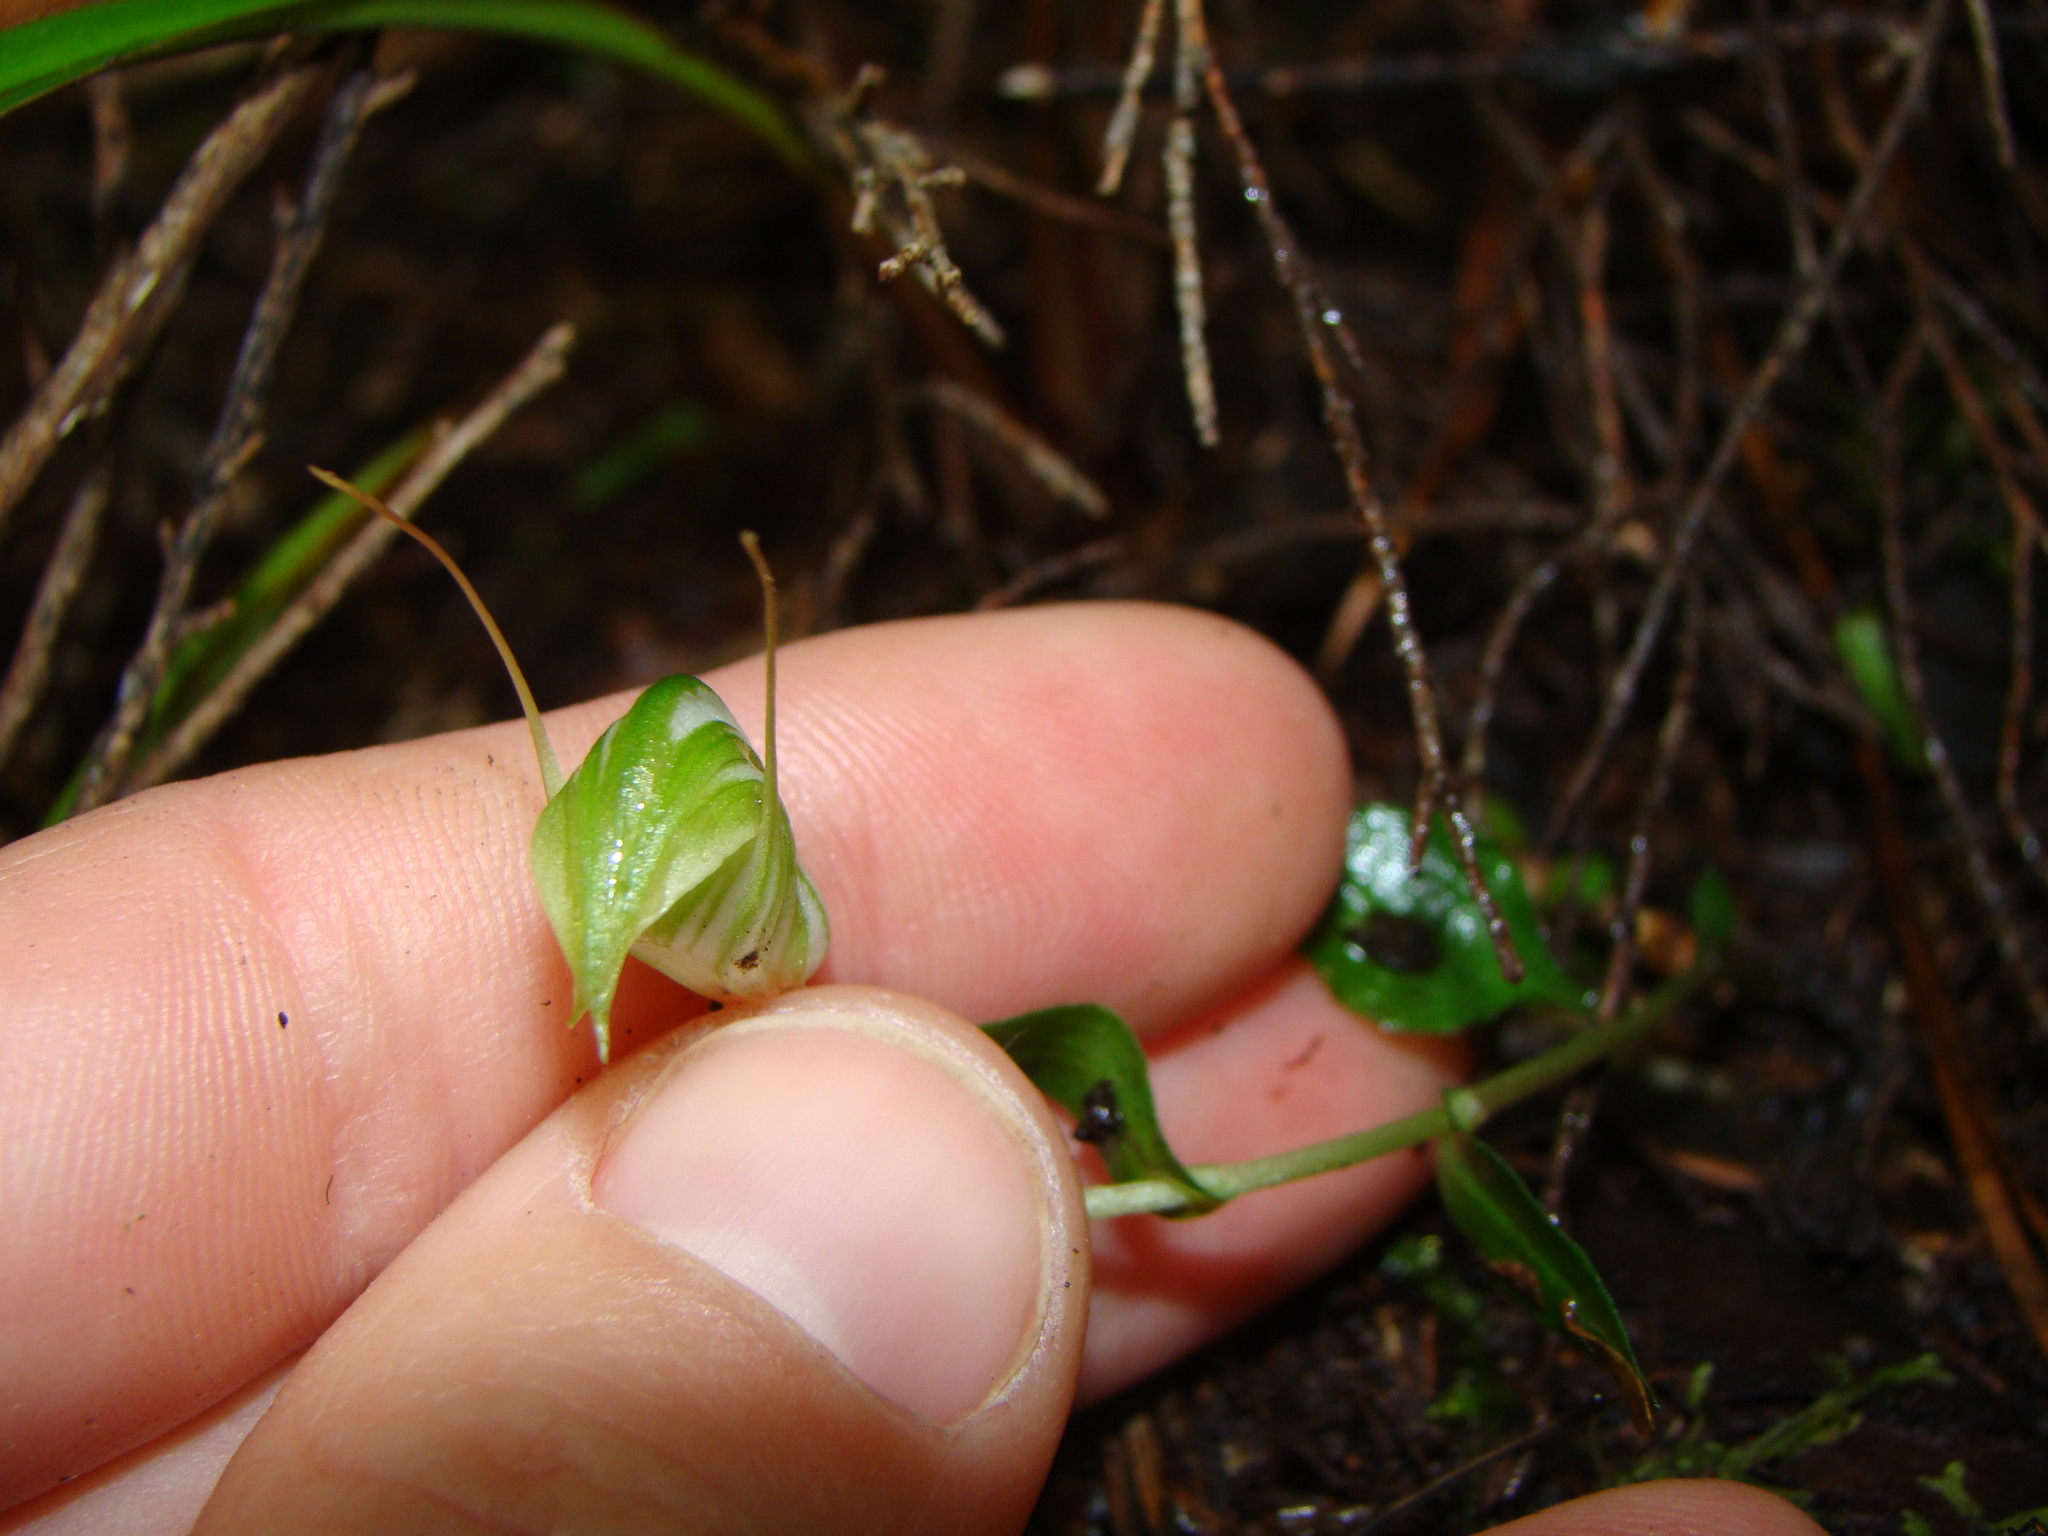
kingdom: Plantae
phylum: Tracheophyta
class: Liliopsida
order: Asparagales
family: Orchidaceae
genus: Pterostylis
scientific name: Pterostylis alobula
